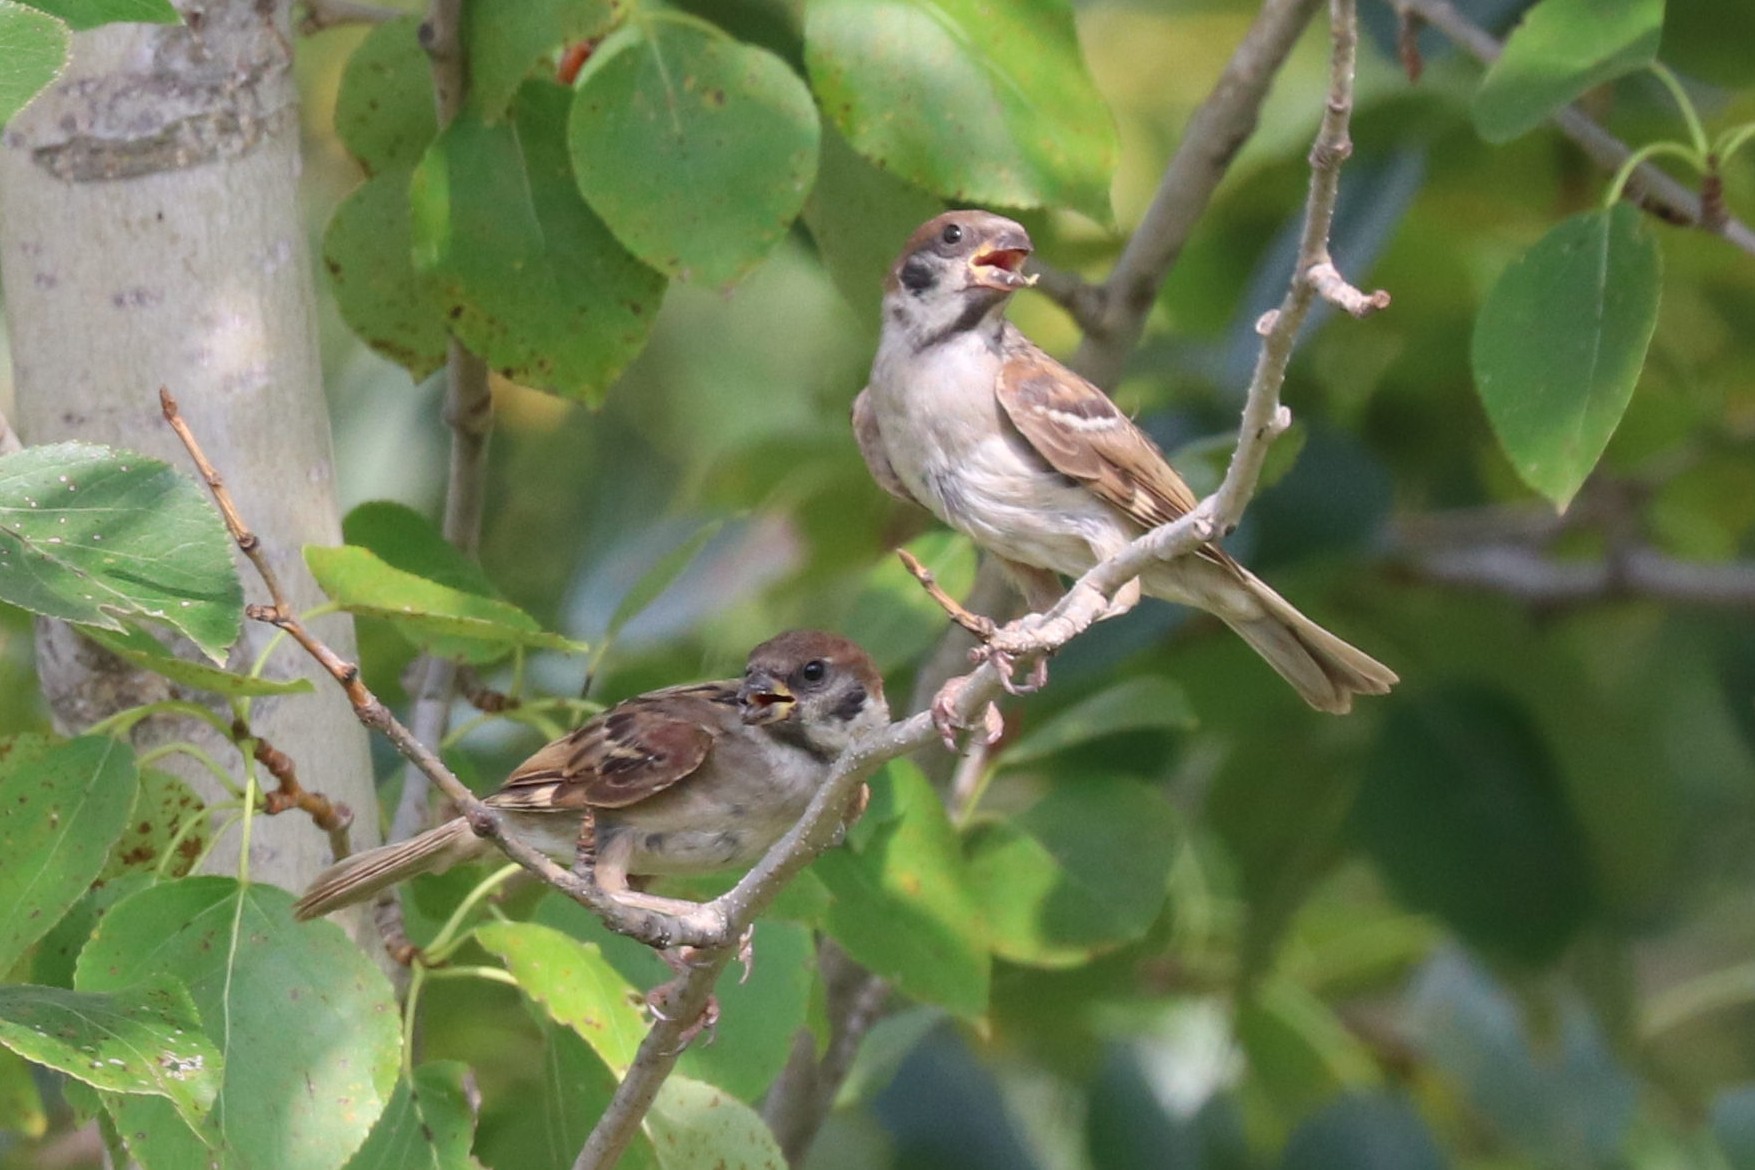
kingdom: Animalia
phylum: Chordata
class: Aves
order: Passeriformes
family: Passeridae
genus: Passer
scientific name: Passer montanus
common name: Eurasian tree sparrow
